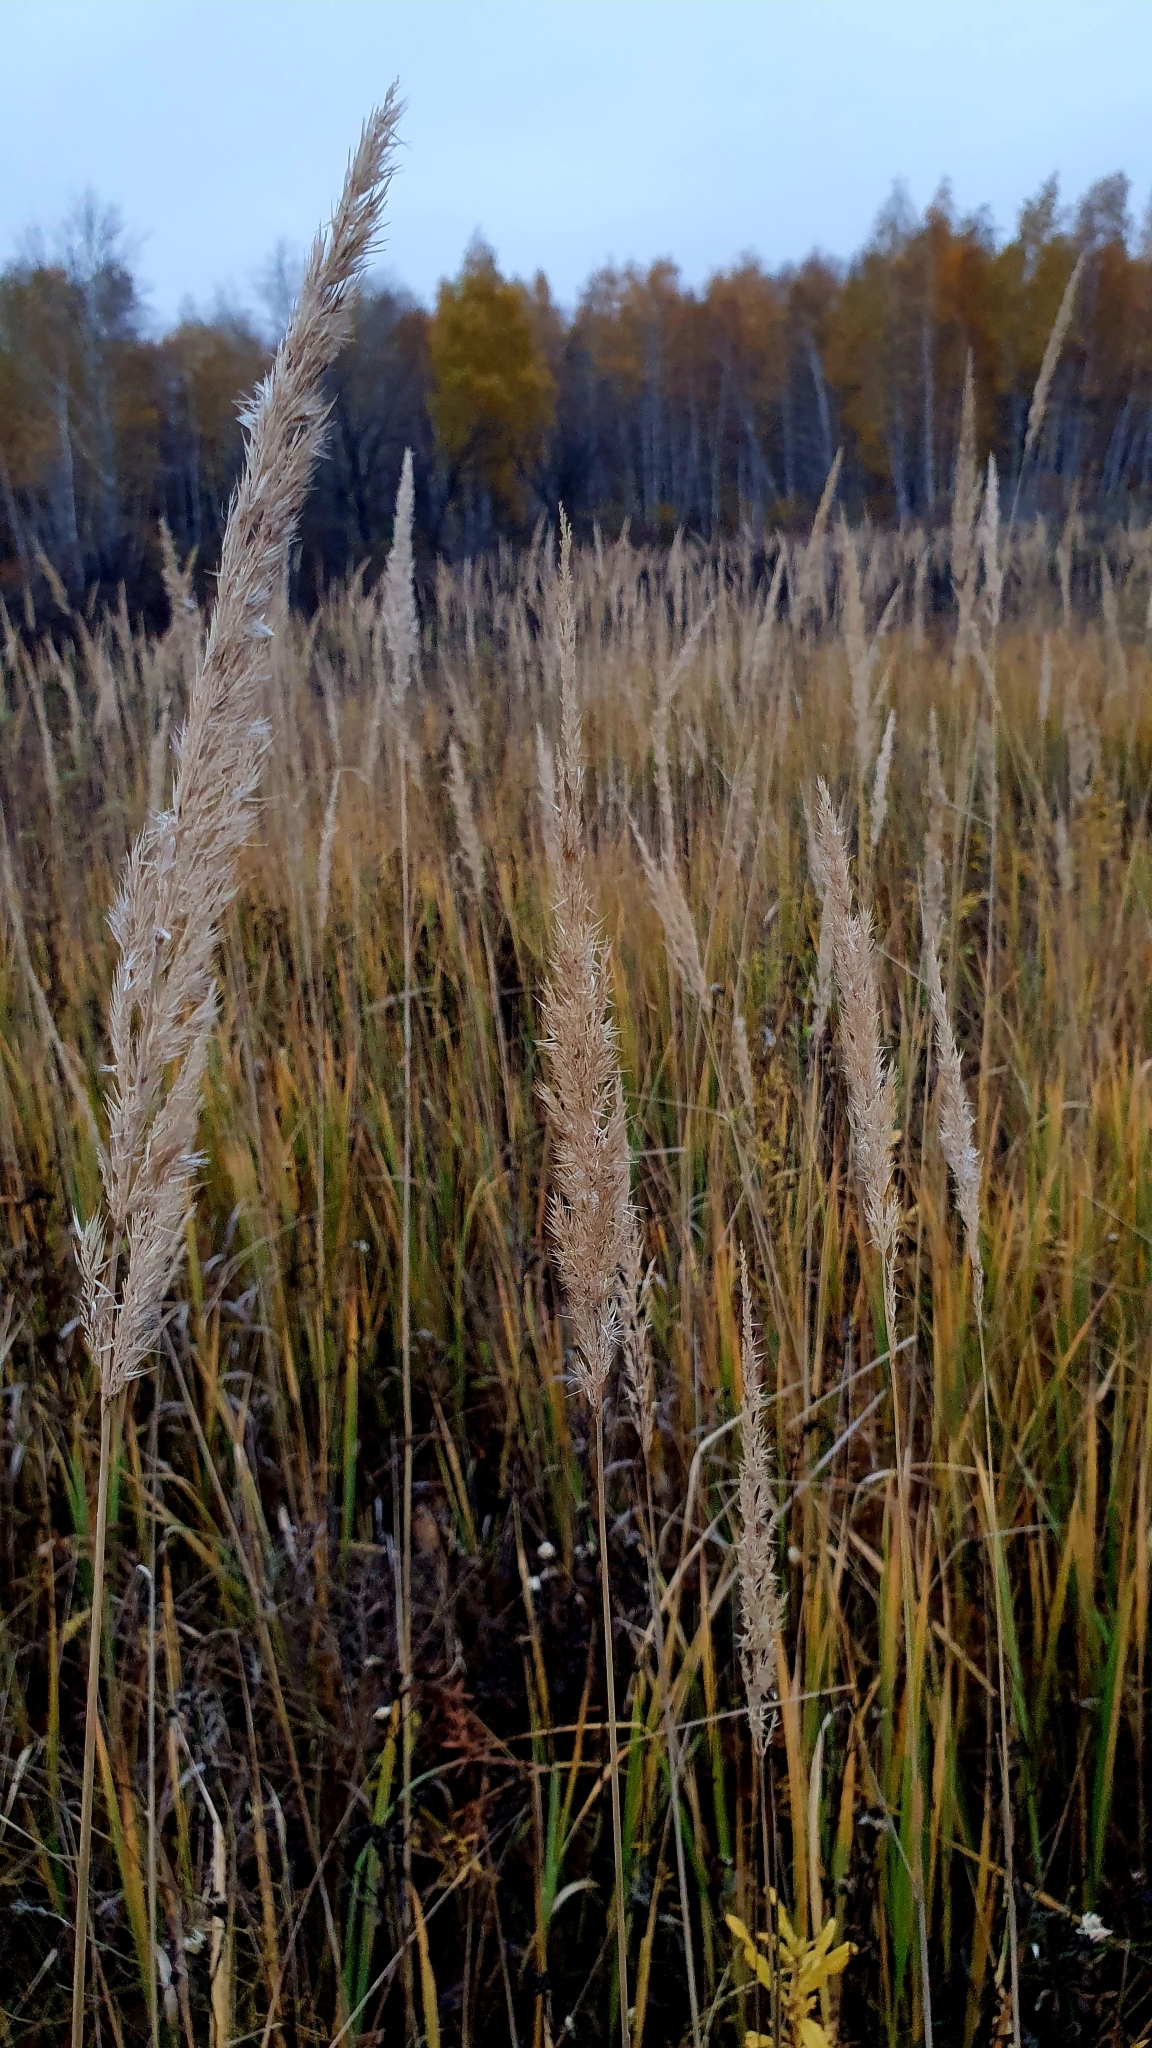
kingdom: Plantae
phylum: Tracheophyta
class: Liliopsida
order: Poales
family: Poaceae
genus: Calamagrostis
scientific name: Calamagrostis epigejos
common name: Wood small-reed
